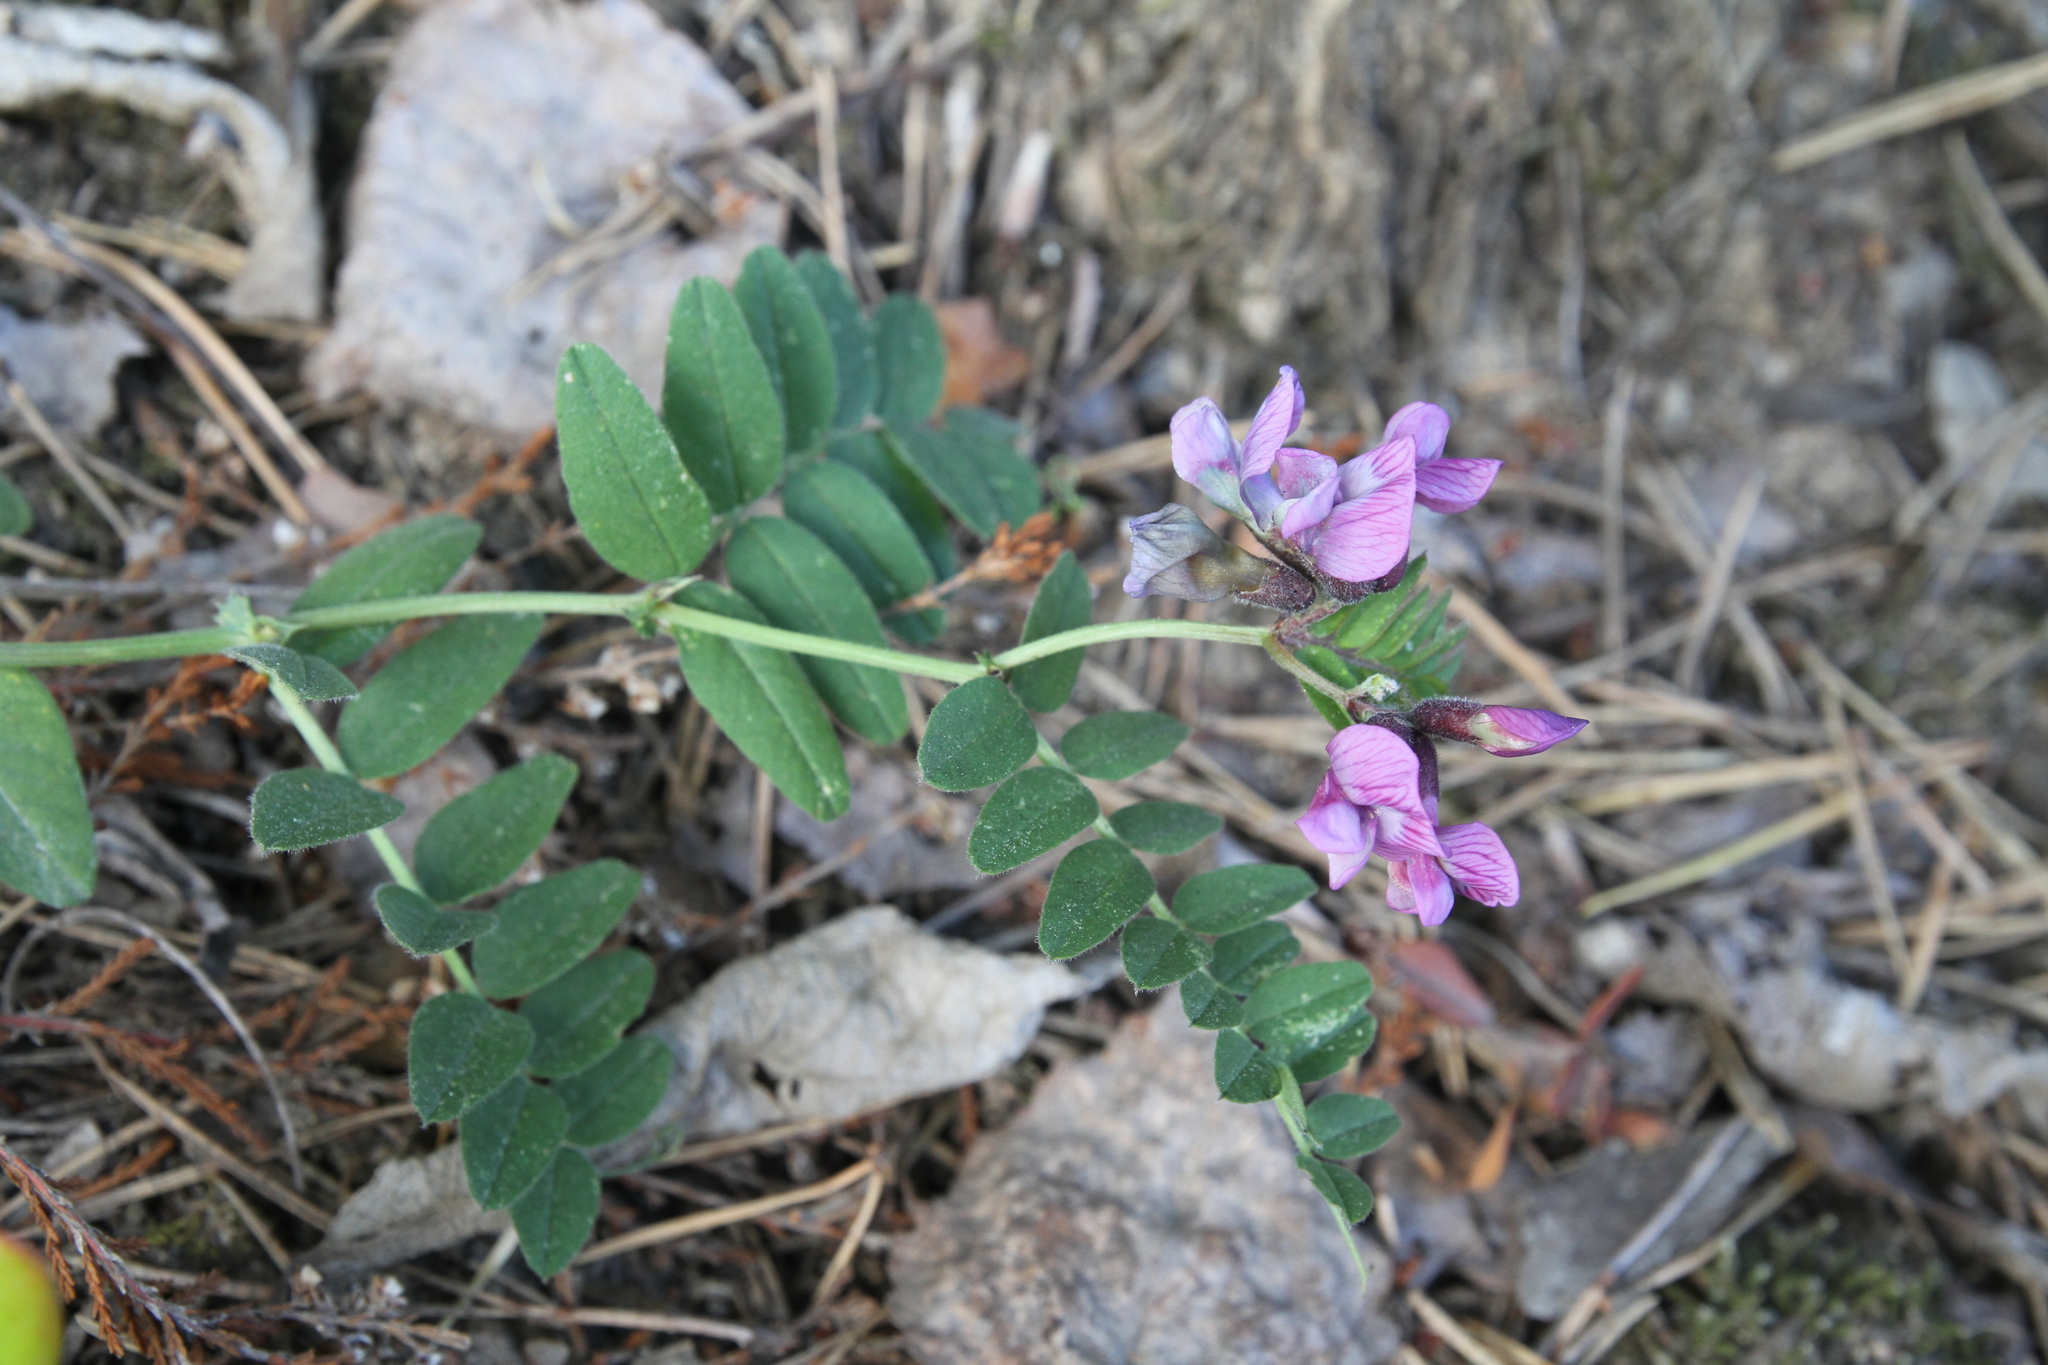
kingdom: Plantae
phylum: Tracheophyta
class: Magnoliopsida
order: Fabales
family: Fabaceae
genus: Vicia
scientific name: Vicia sepium
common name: Bush vetch
